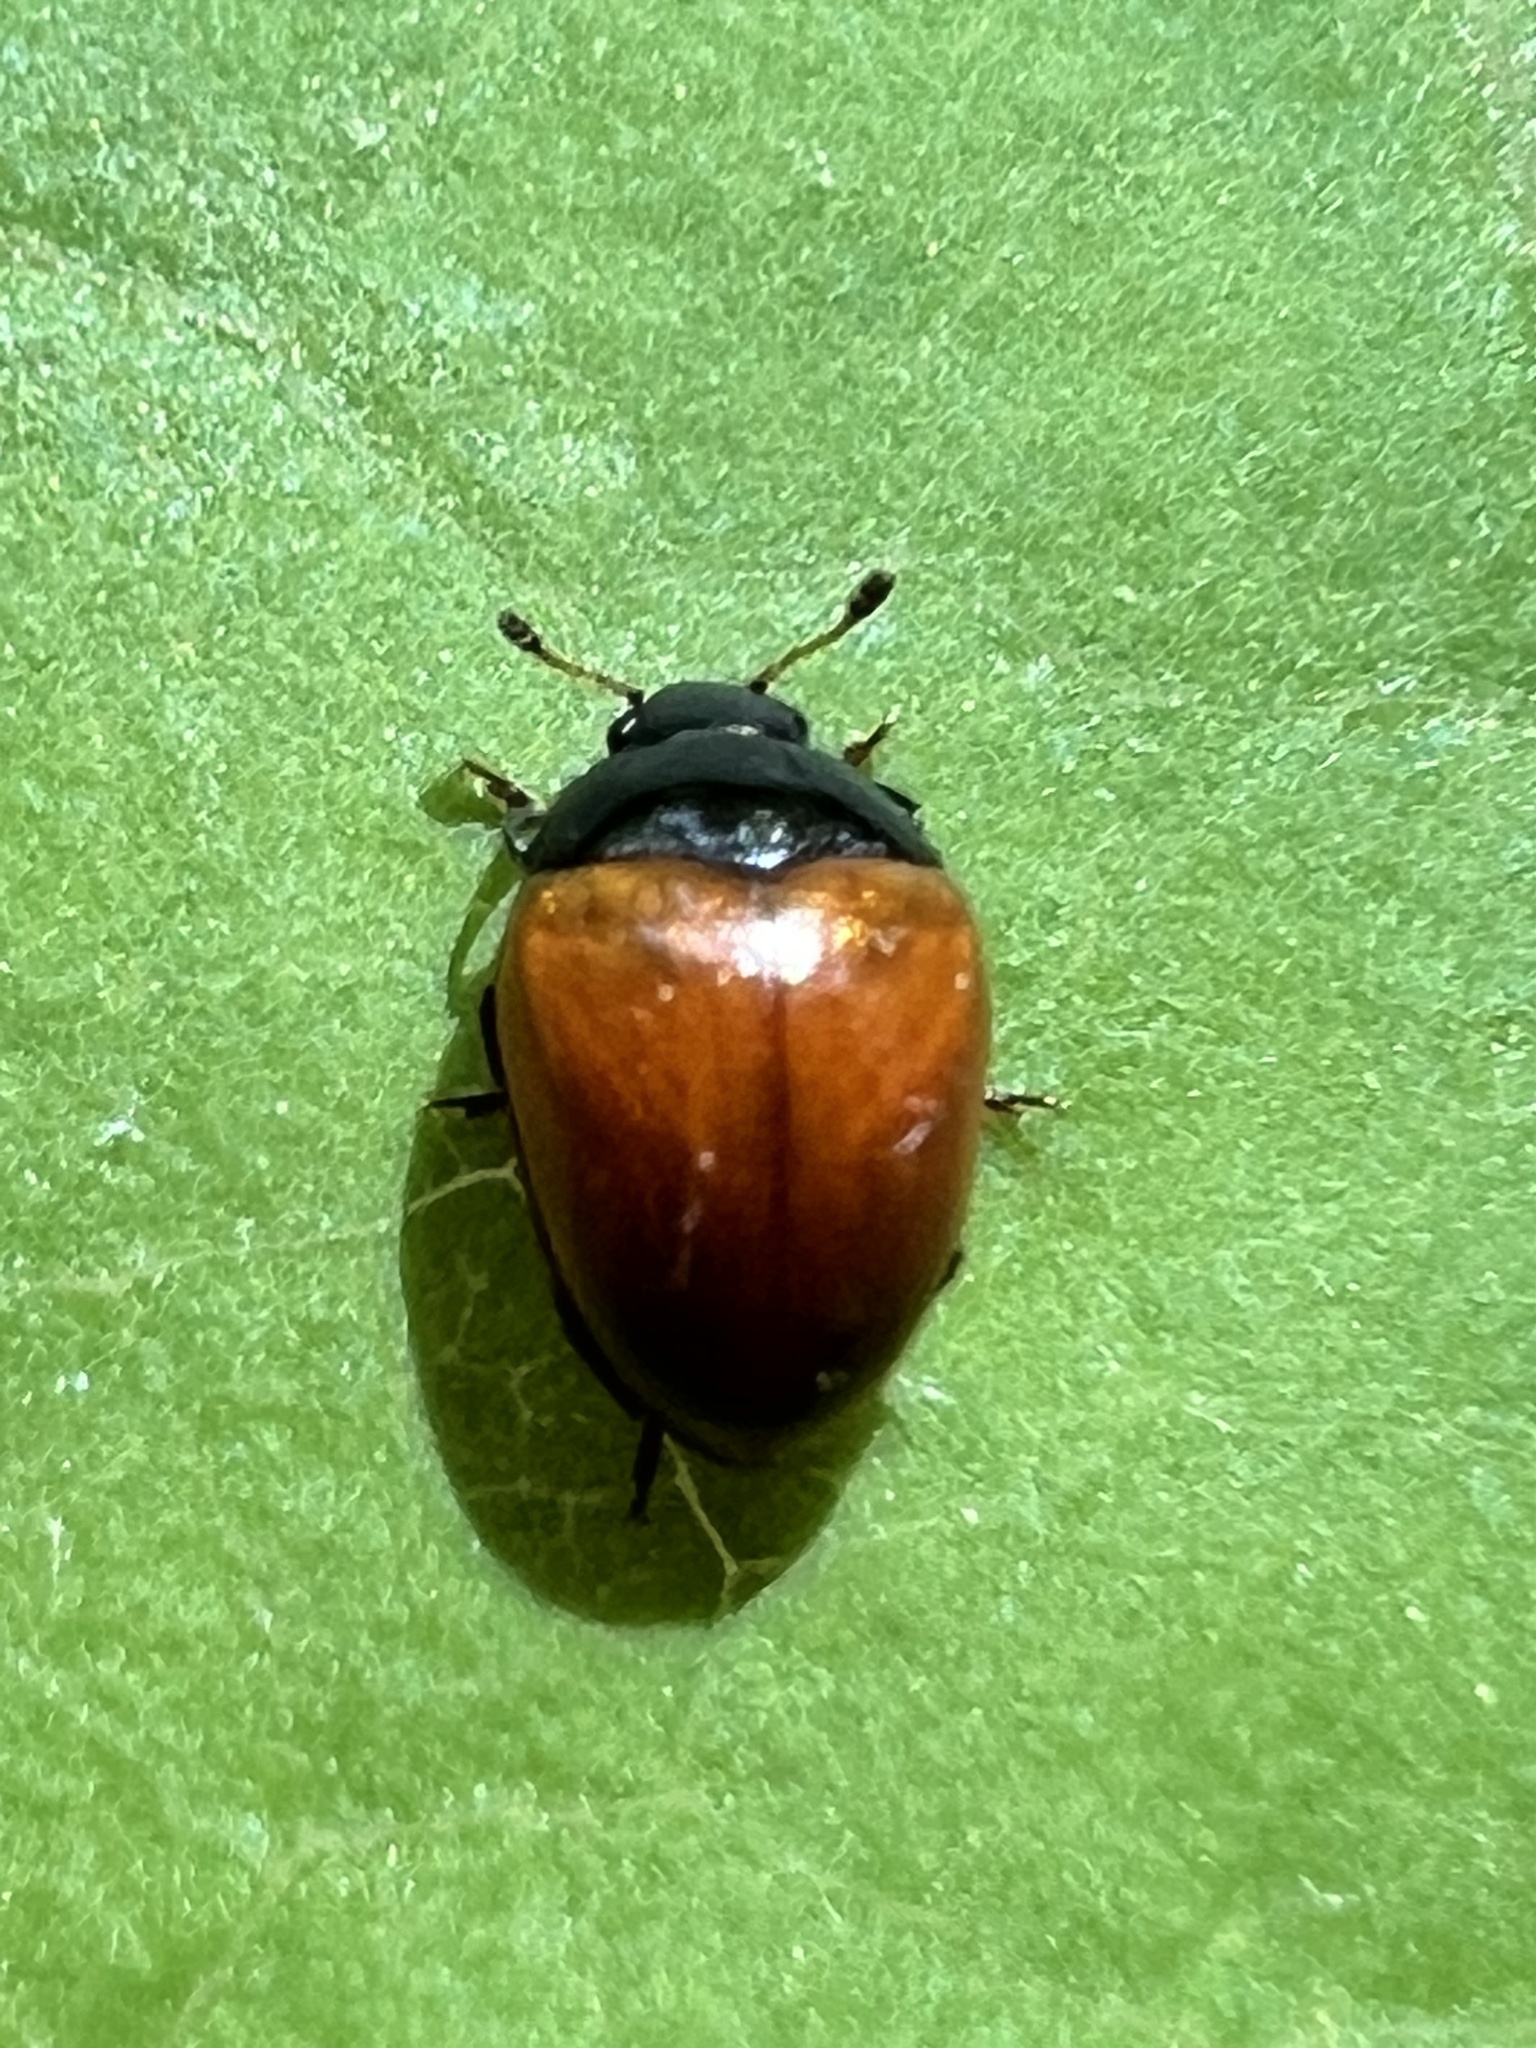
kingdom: Animalia
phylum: Arthropoda
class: Insecta
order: Coleoptera
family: Erotylidae
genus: Tritoma
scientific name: Tritoma sanguinipennis
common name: Red-winged tritoma
